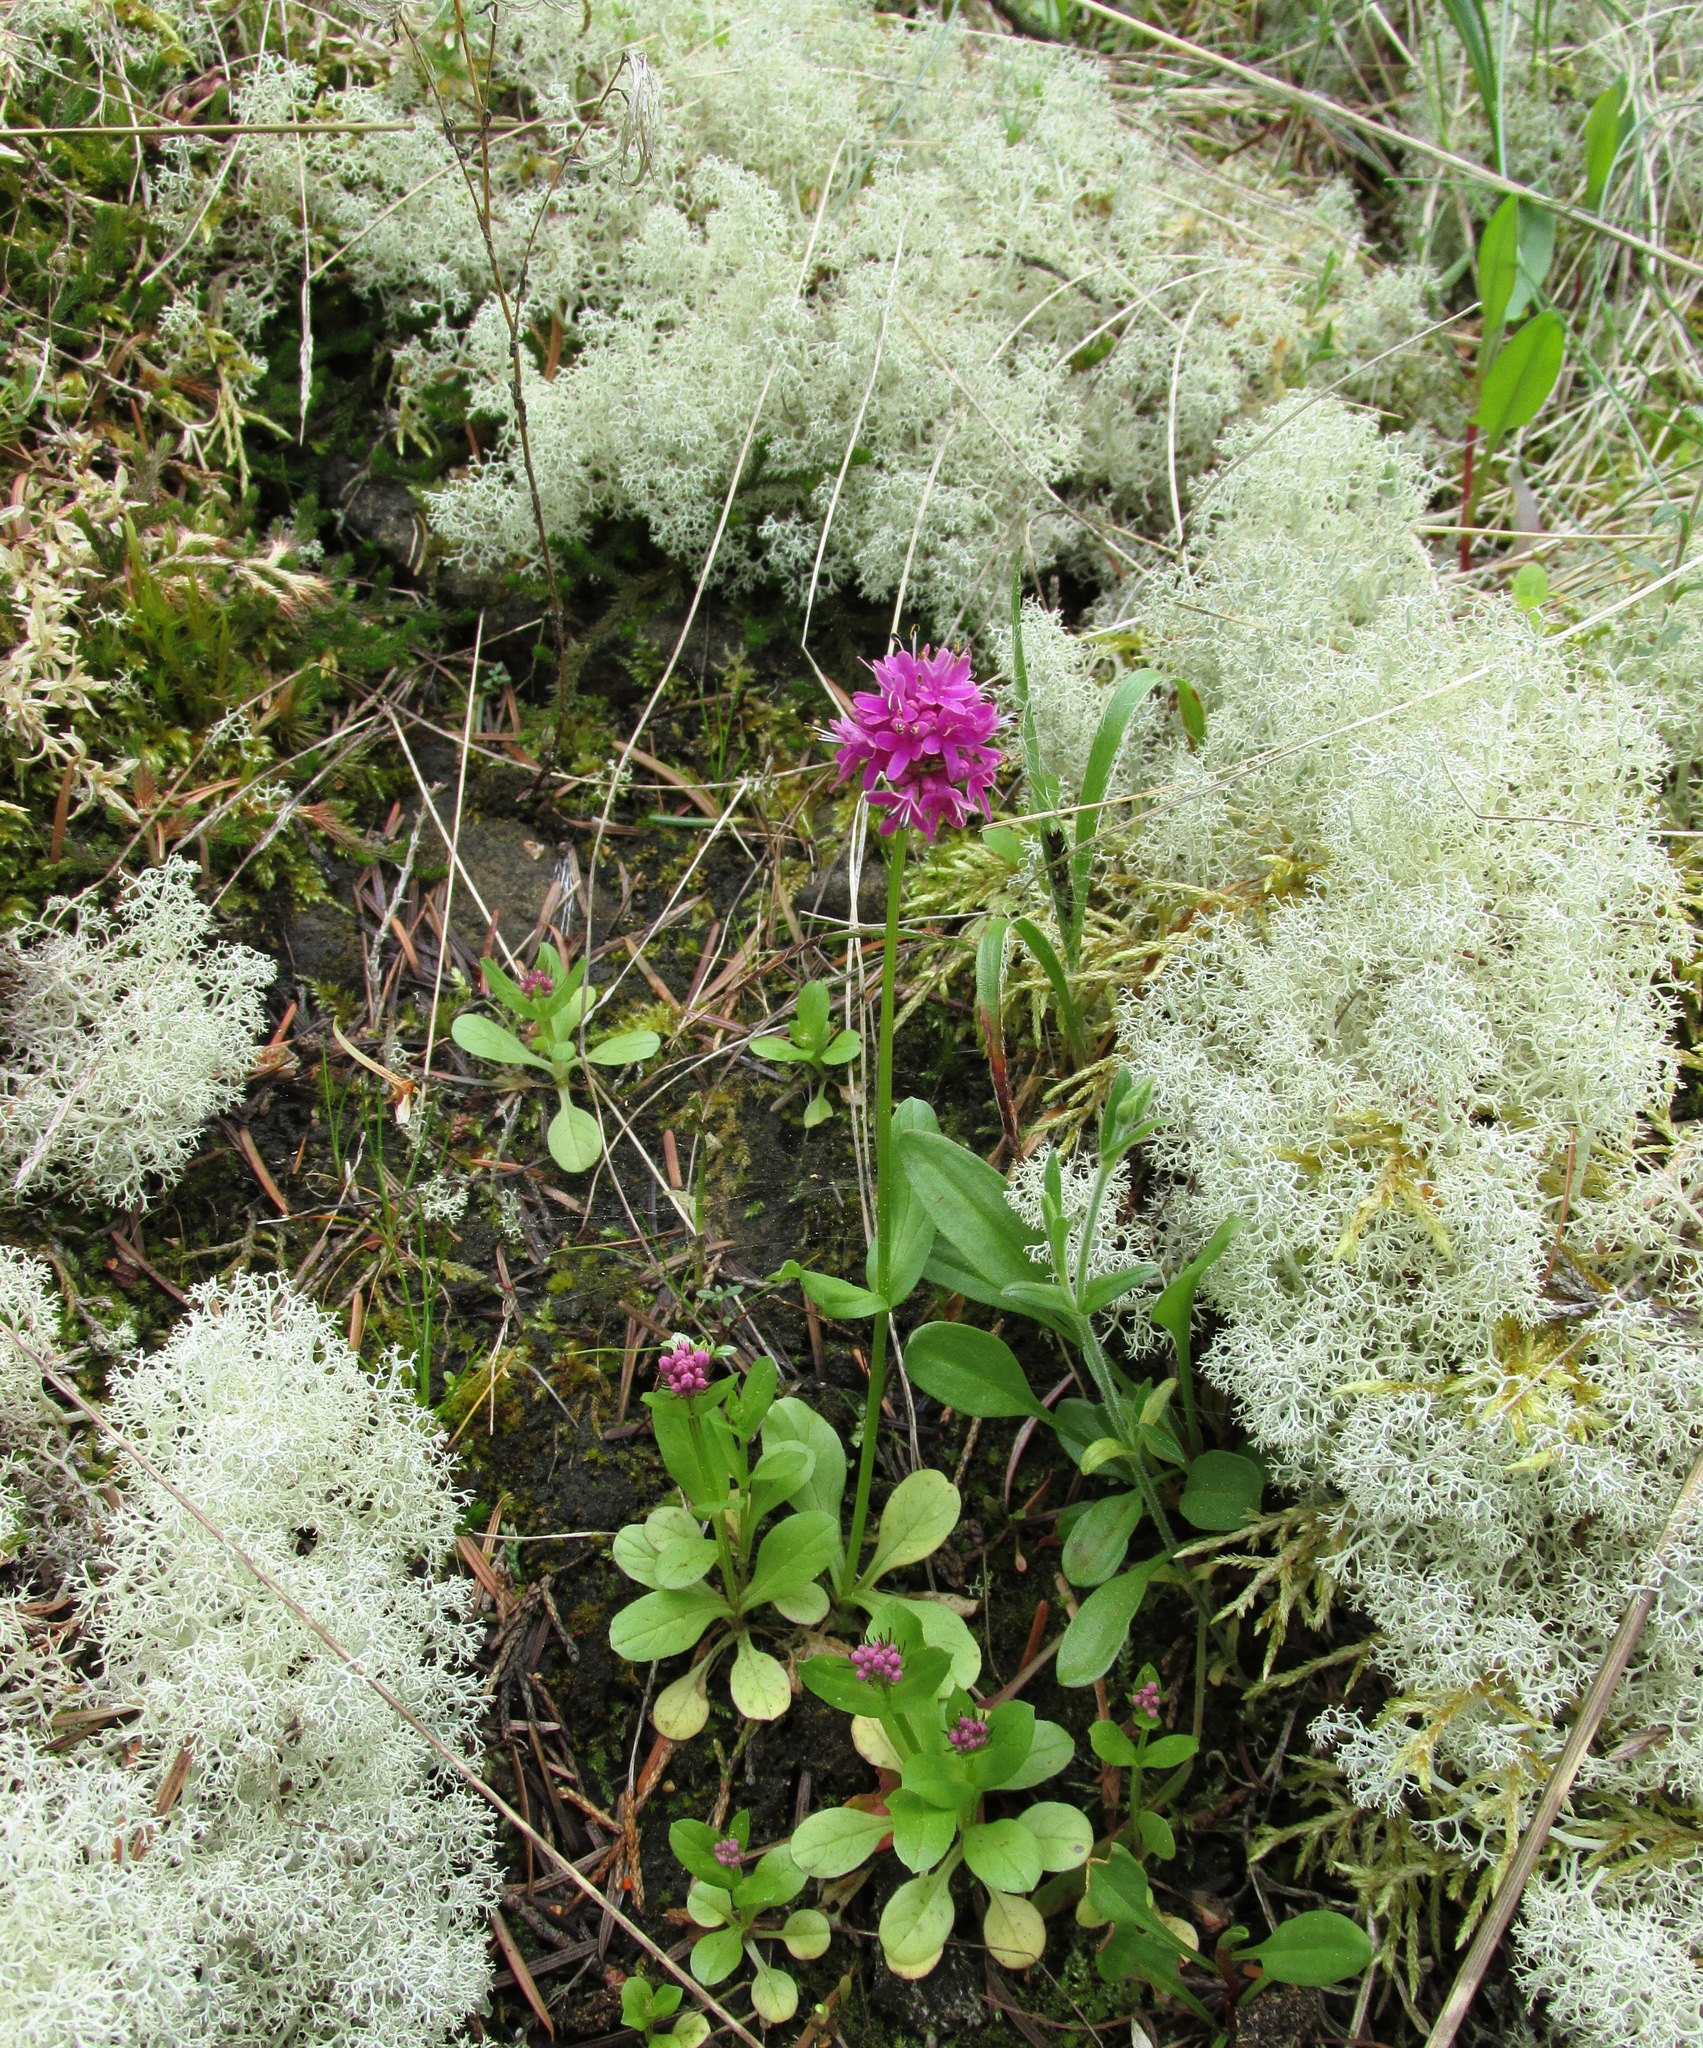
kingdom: Plantae
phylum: Tracheophyta
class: Magnoliopsida
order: Dipsacales
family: Caprifoliaceae
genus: Plectritis
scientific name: Plectritis congesta
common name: Pink plectritis
